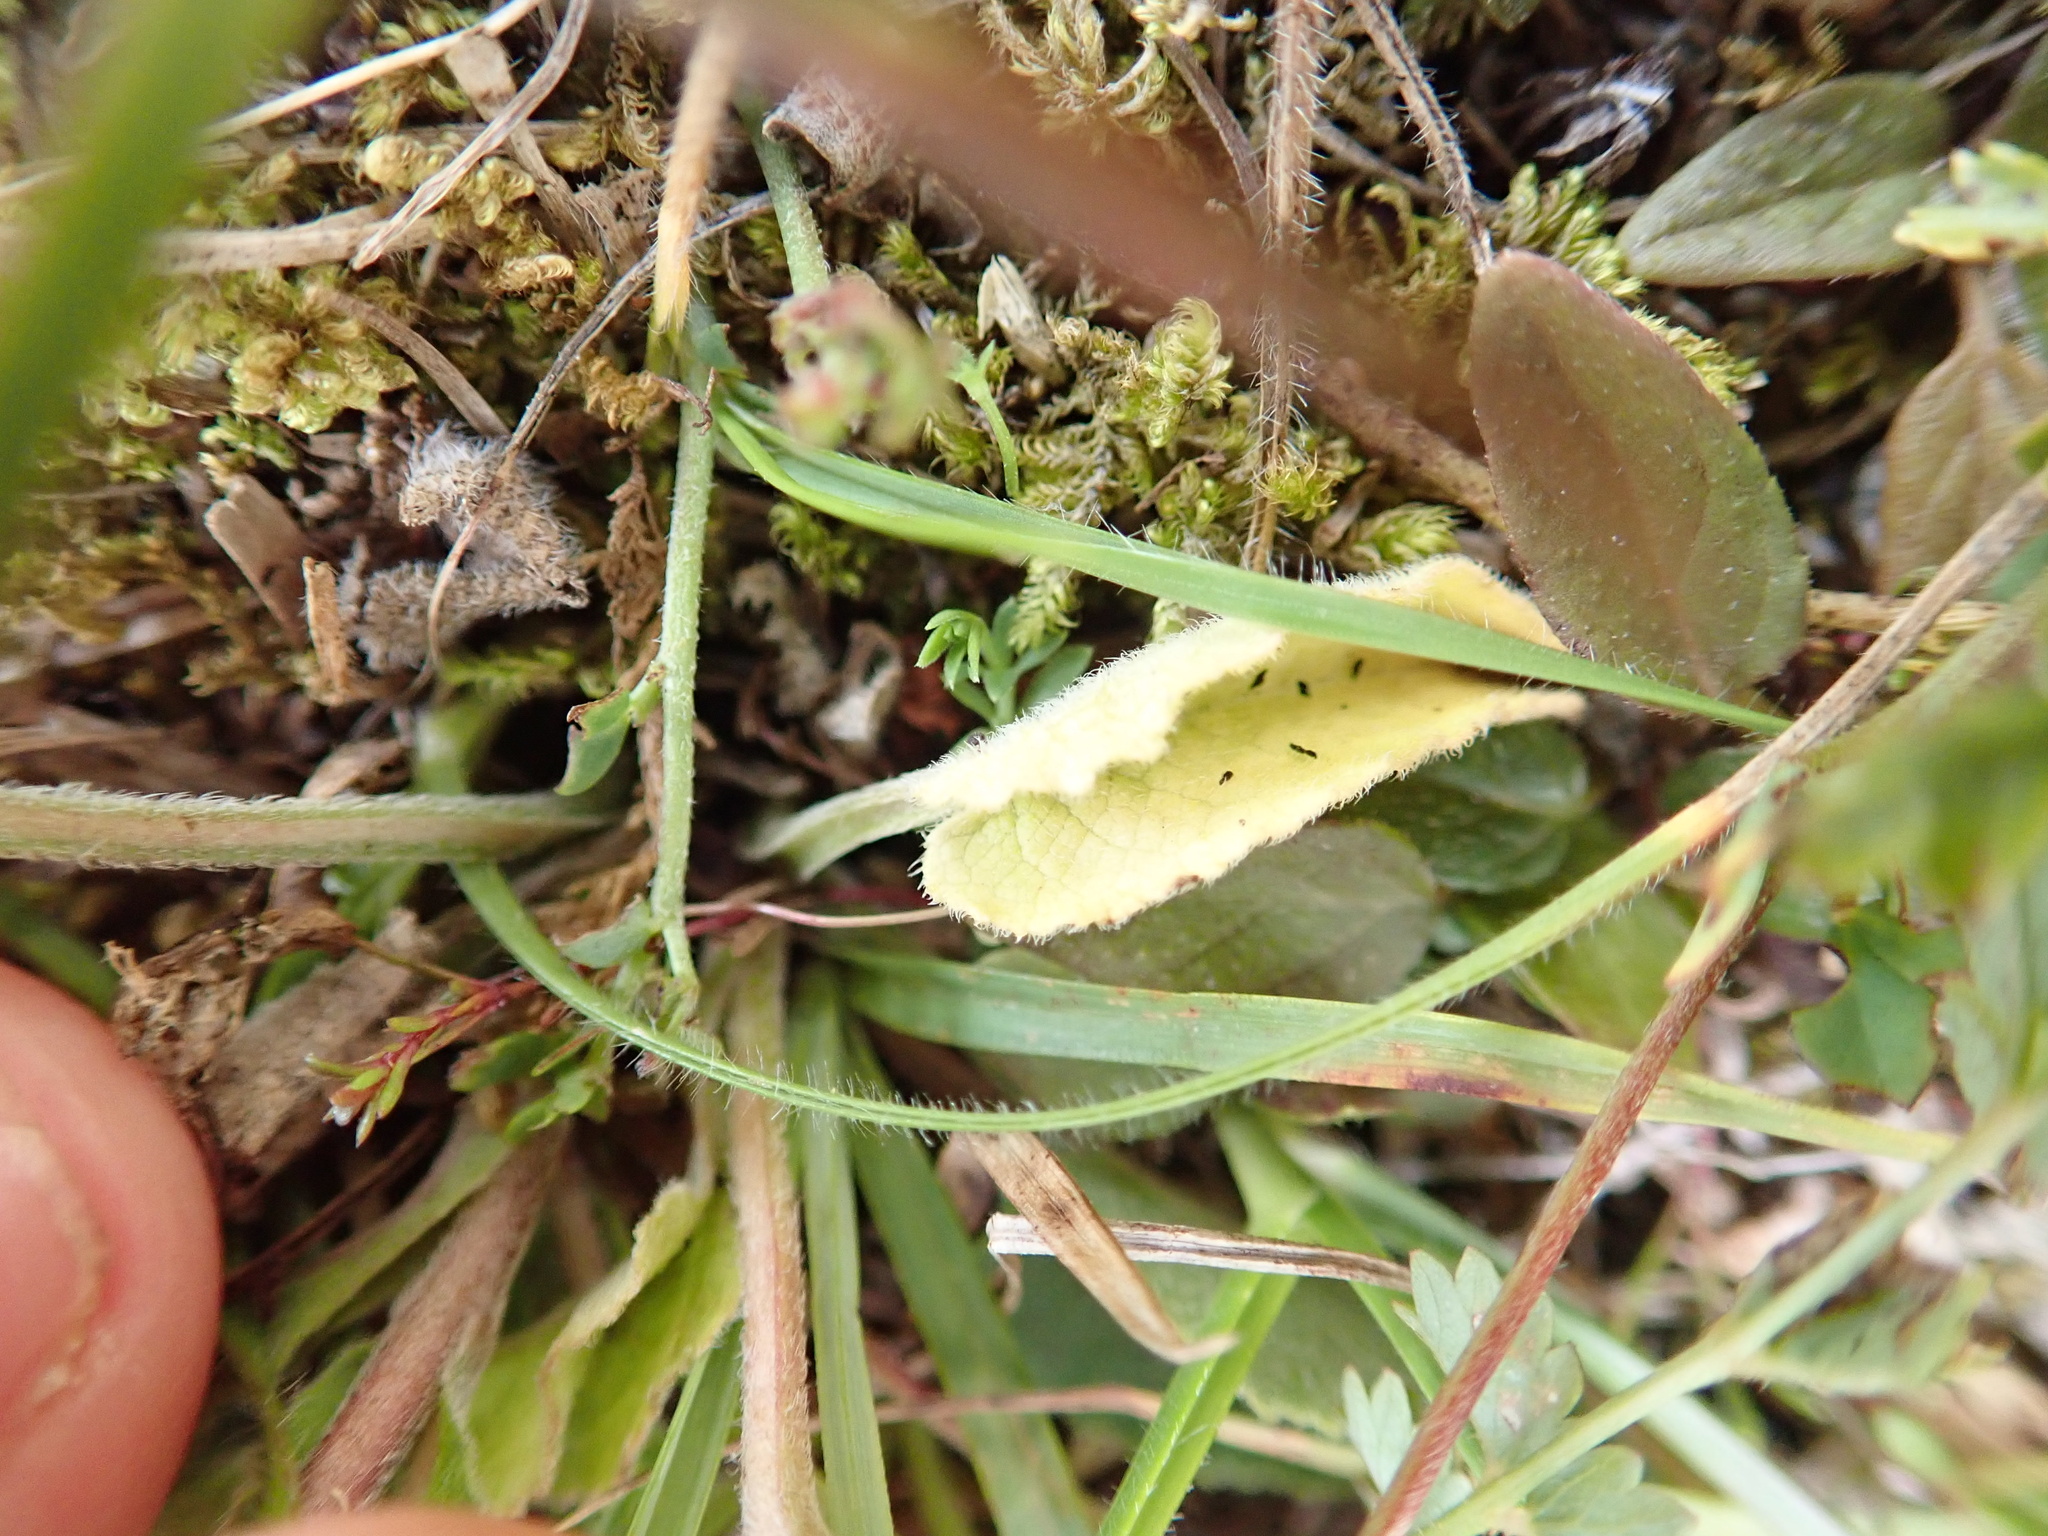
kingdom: Plantae
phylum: Tracheophyta
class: Magnoliopsida
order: Asterales
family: Campanulaceae
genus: Campanula
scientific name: Campanula glomerata
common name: Clustered bellflower
